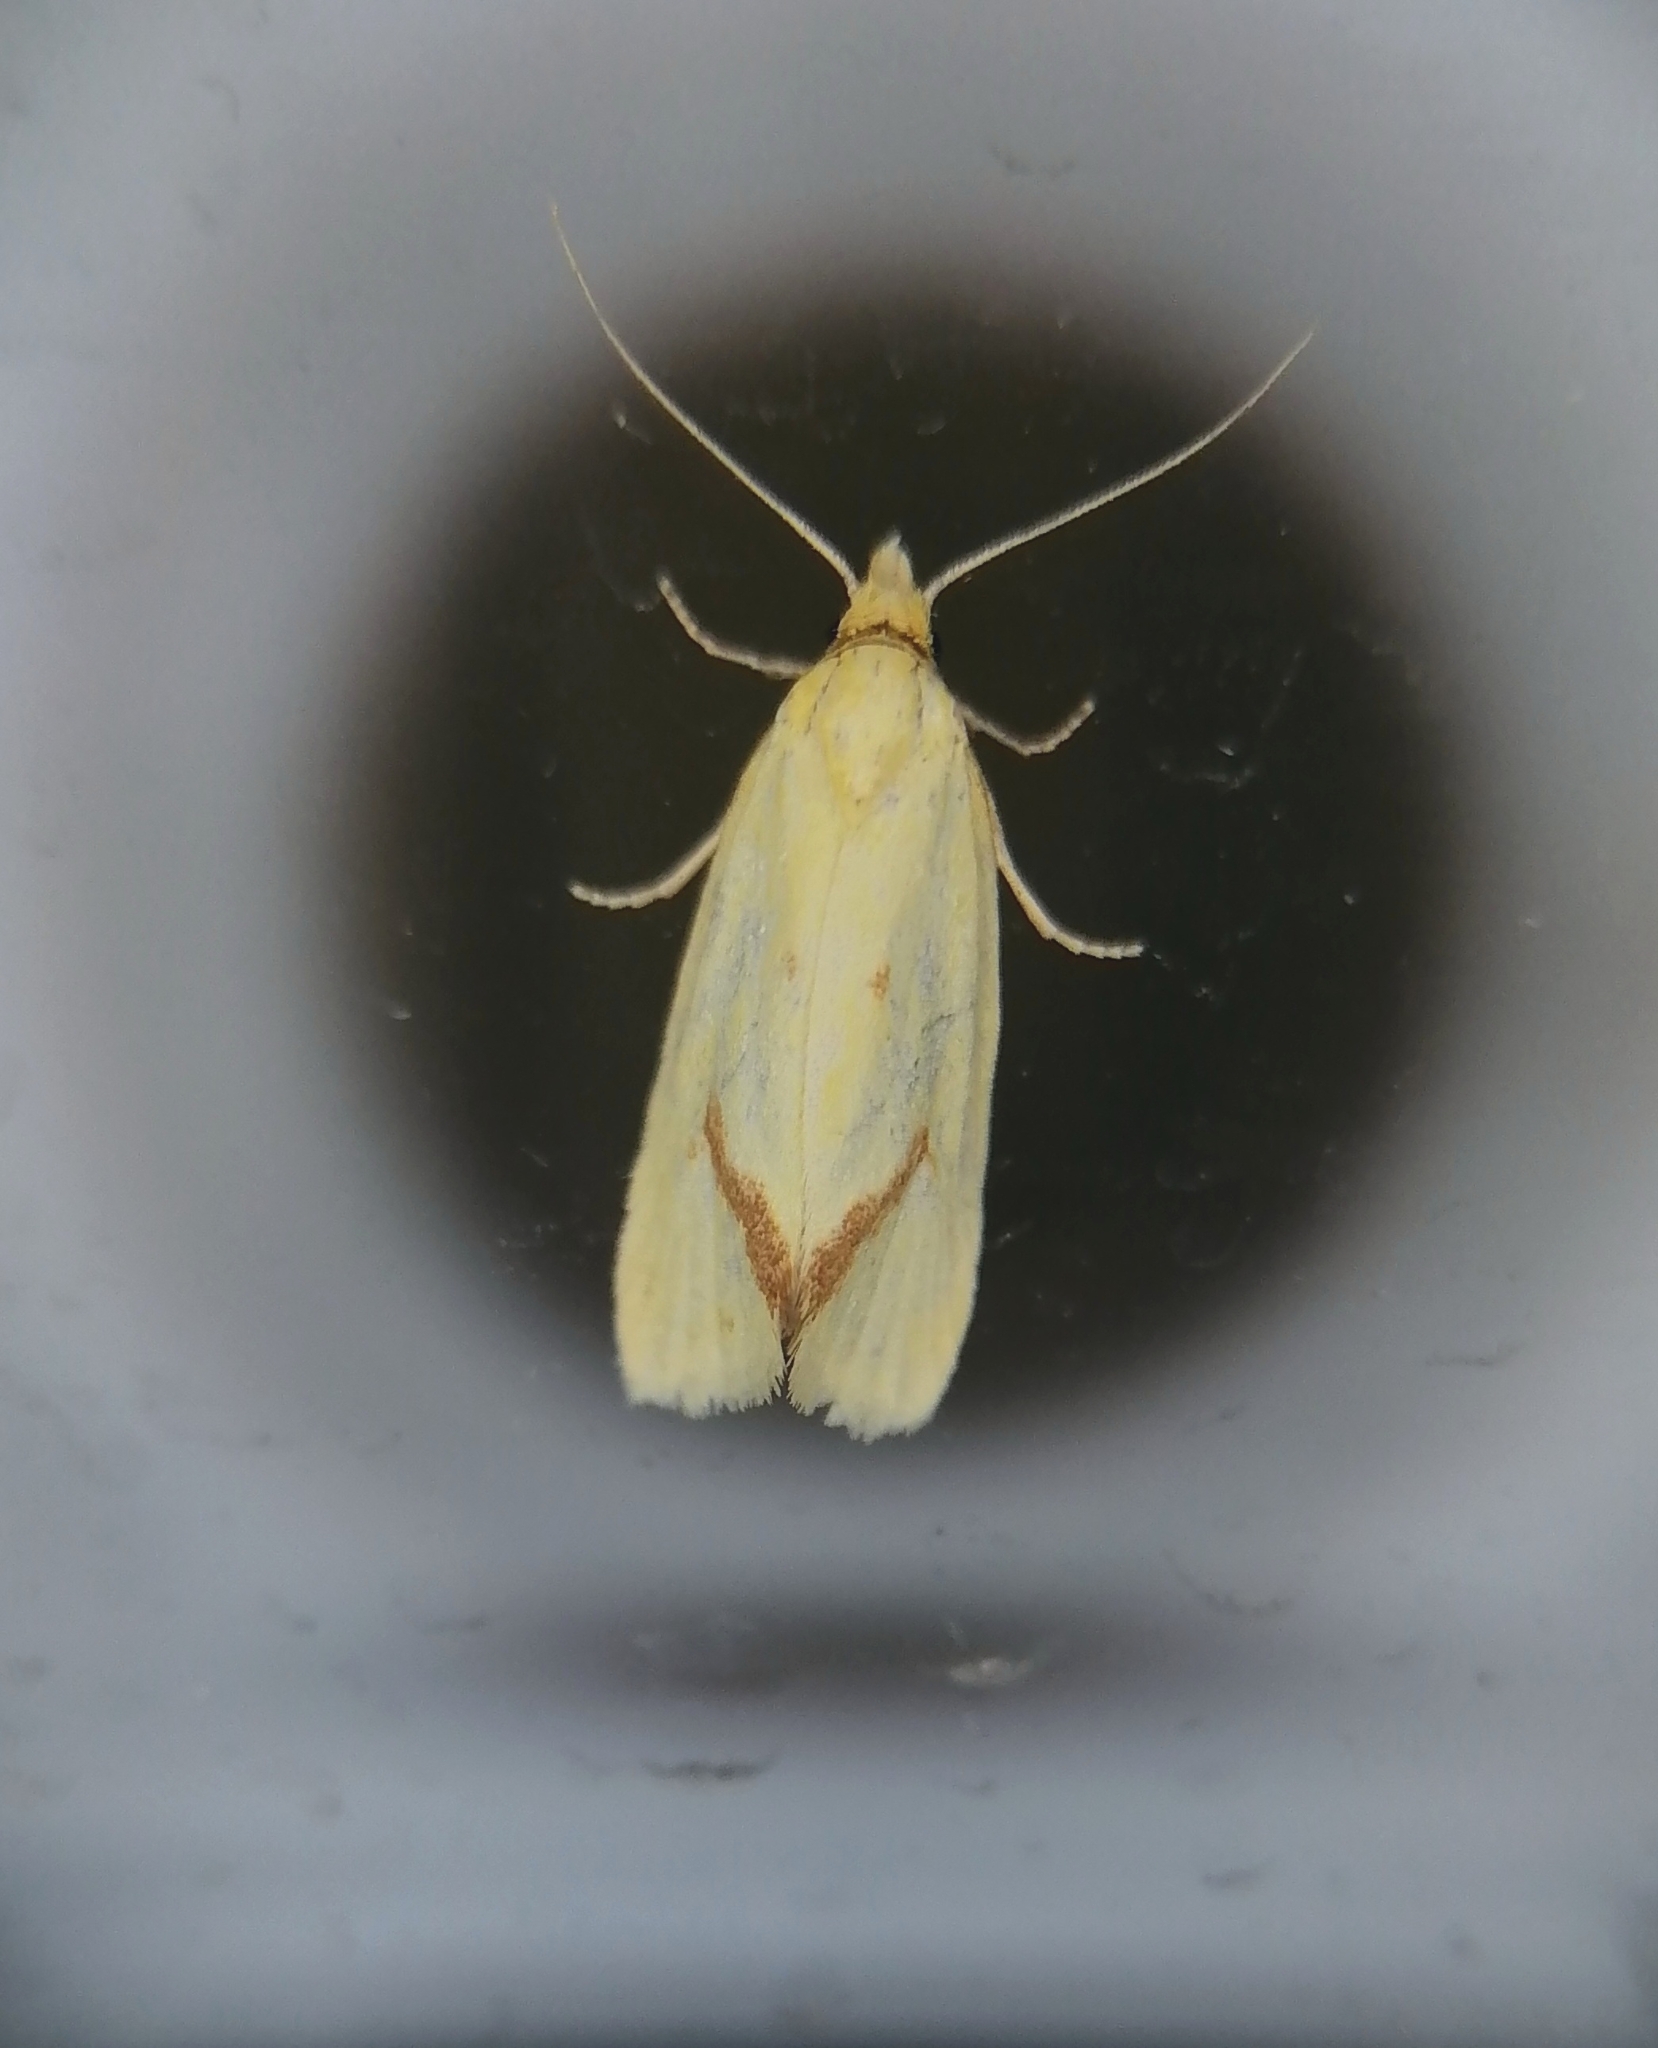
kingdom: Animalia
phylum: Arthropoda
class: Insecta
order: Lepidoptera
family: Tortricidae
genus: Agapeta
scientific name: Agapeta hamana
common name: Common yellow conch
